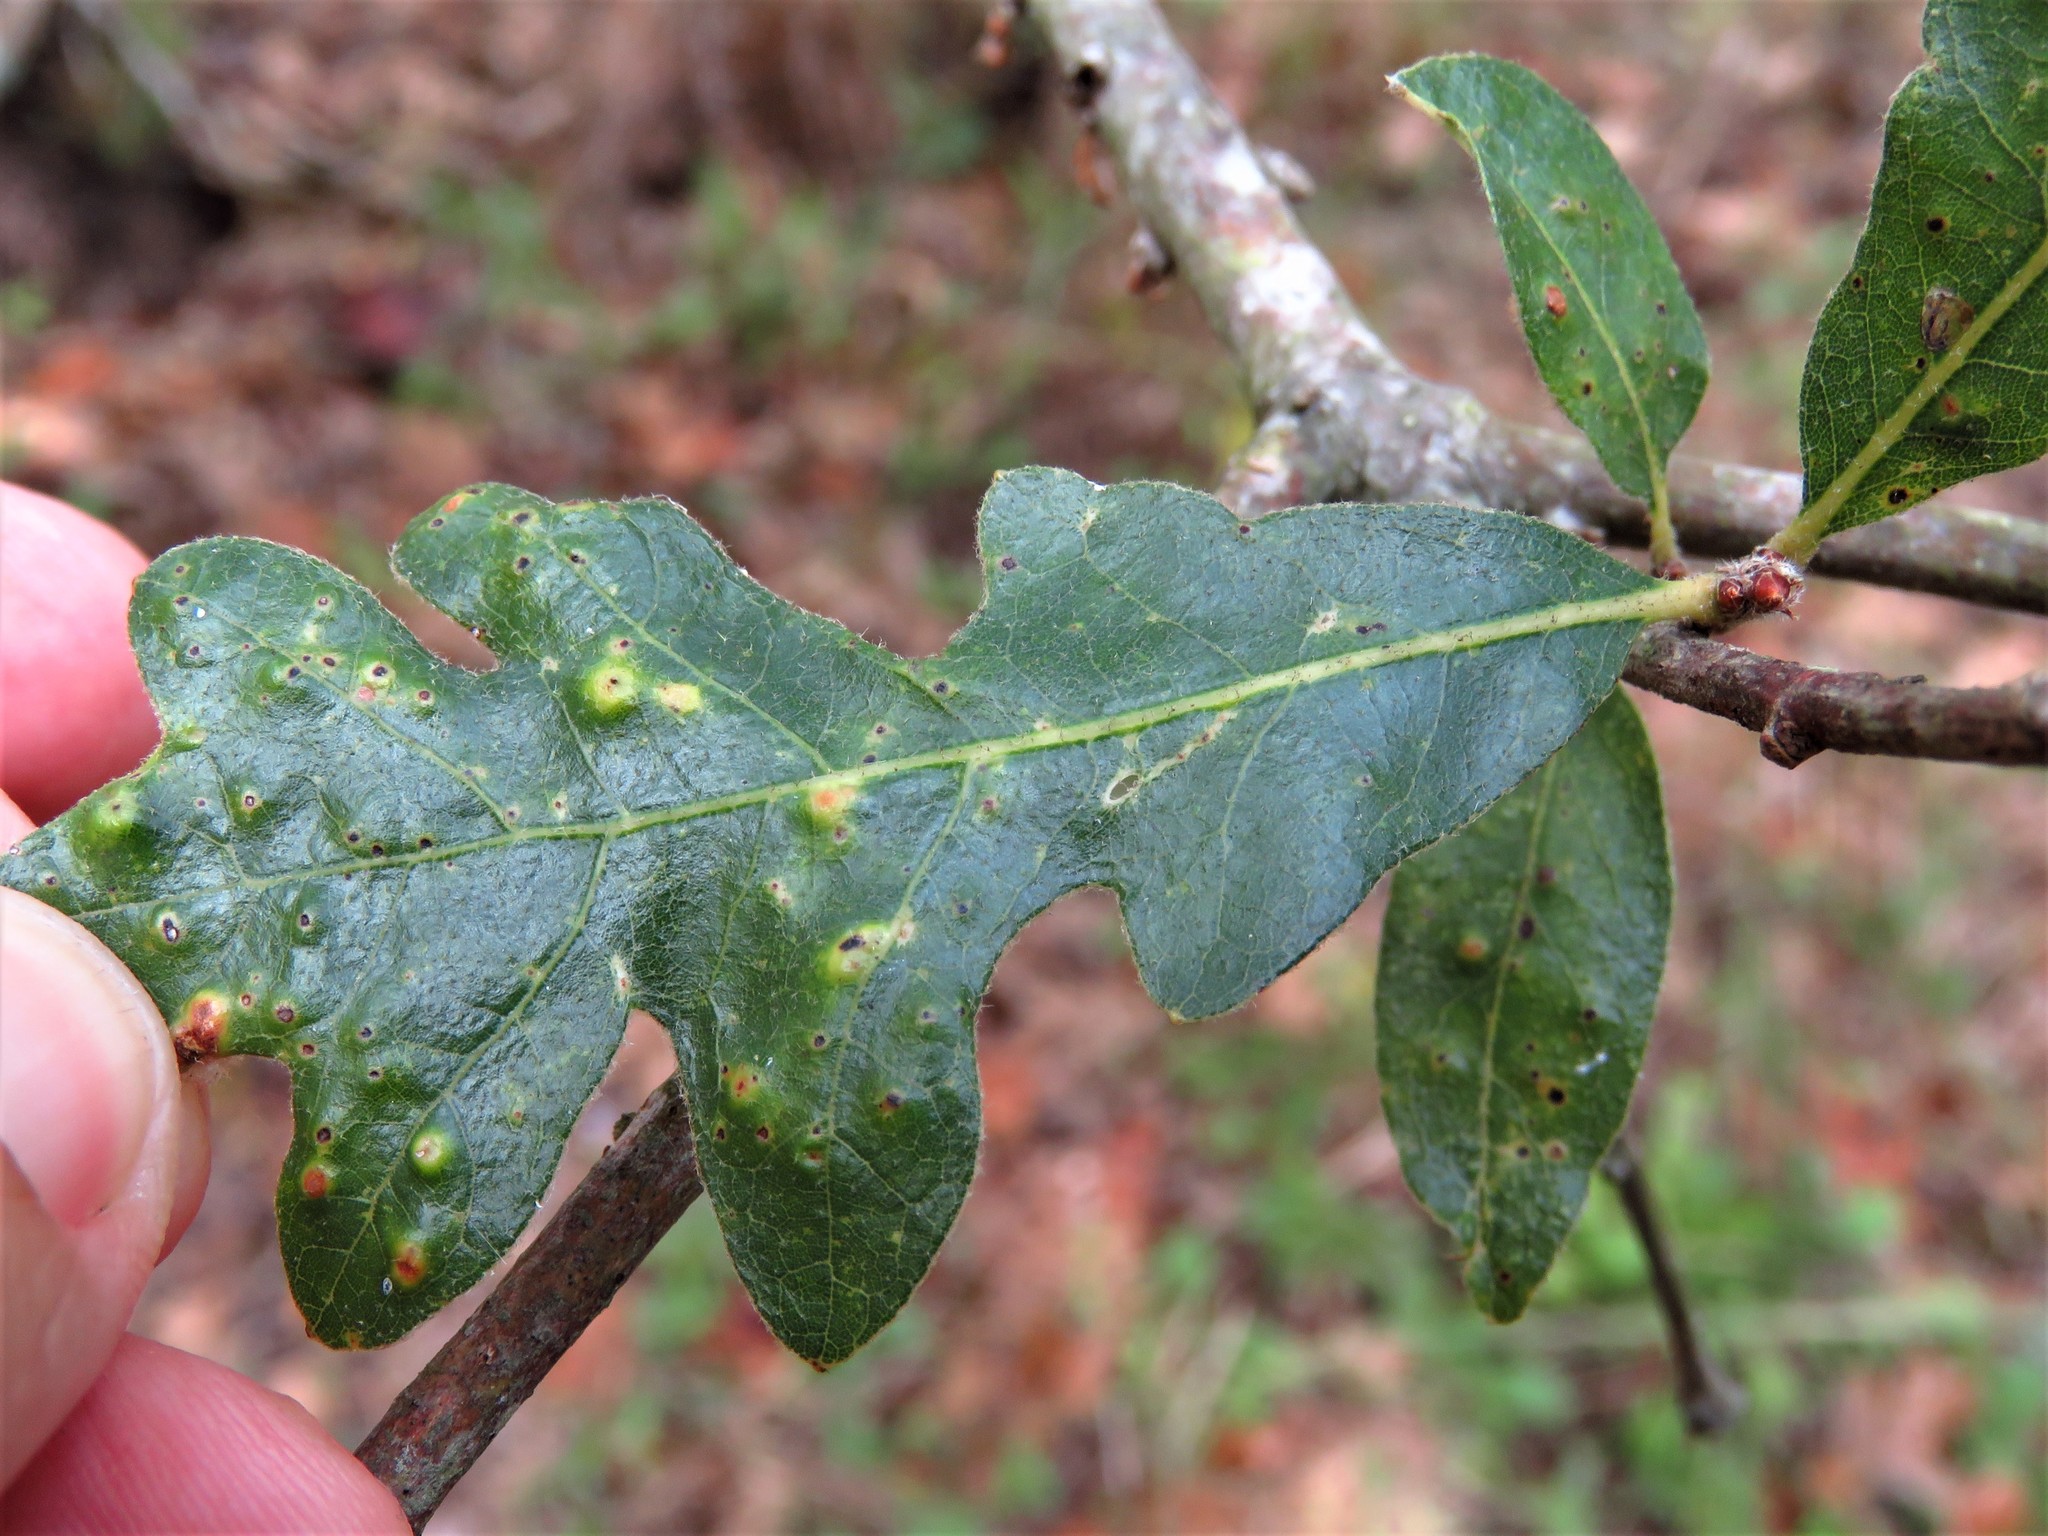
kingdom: Animalia
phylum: Arthropoda
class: Insecta
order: Hymenoptera
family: Cynipidae
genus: Neuroterus
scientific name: Neuroterus quercusverrucarum
